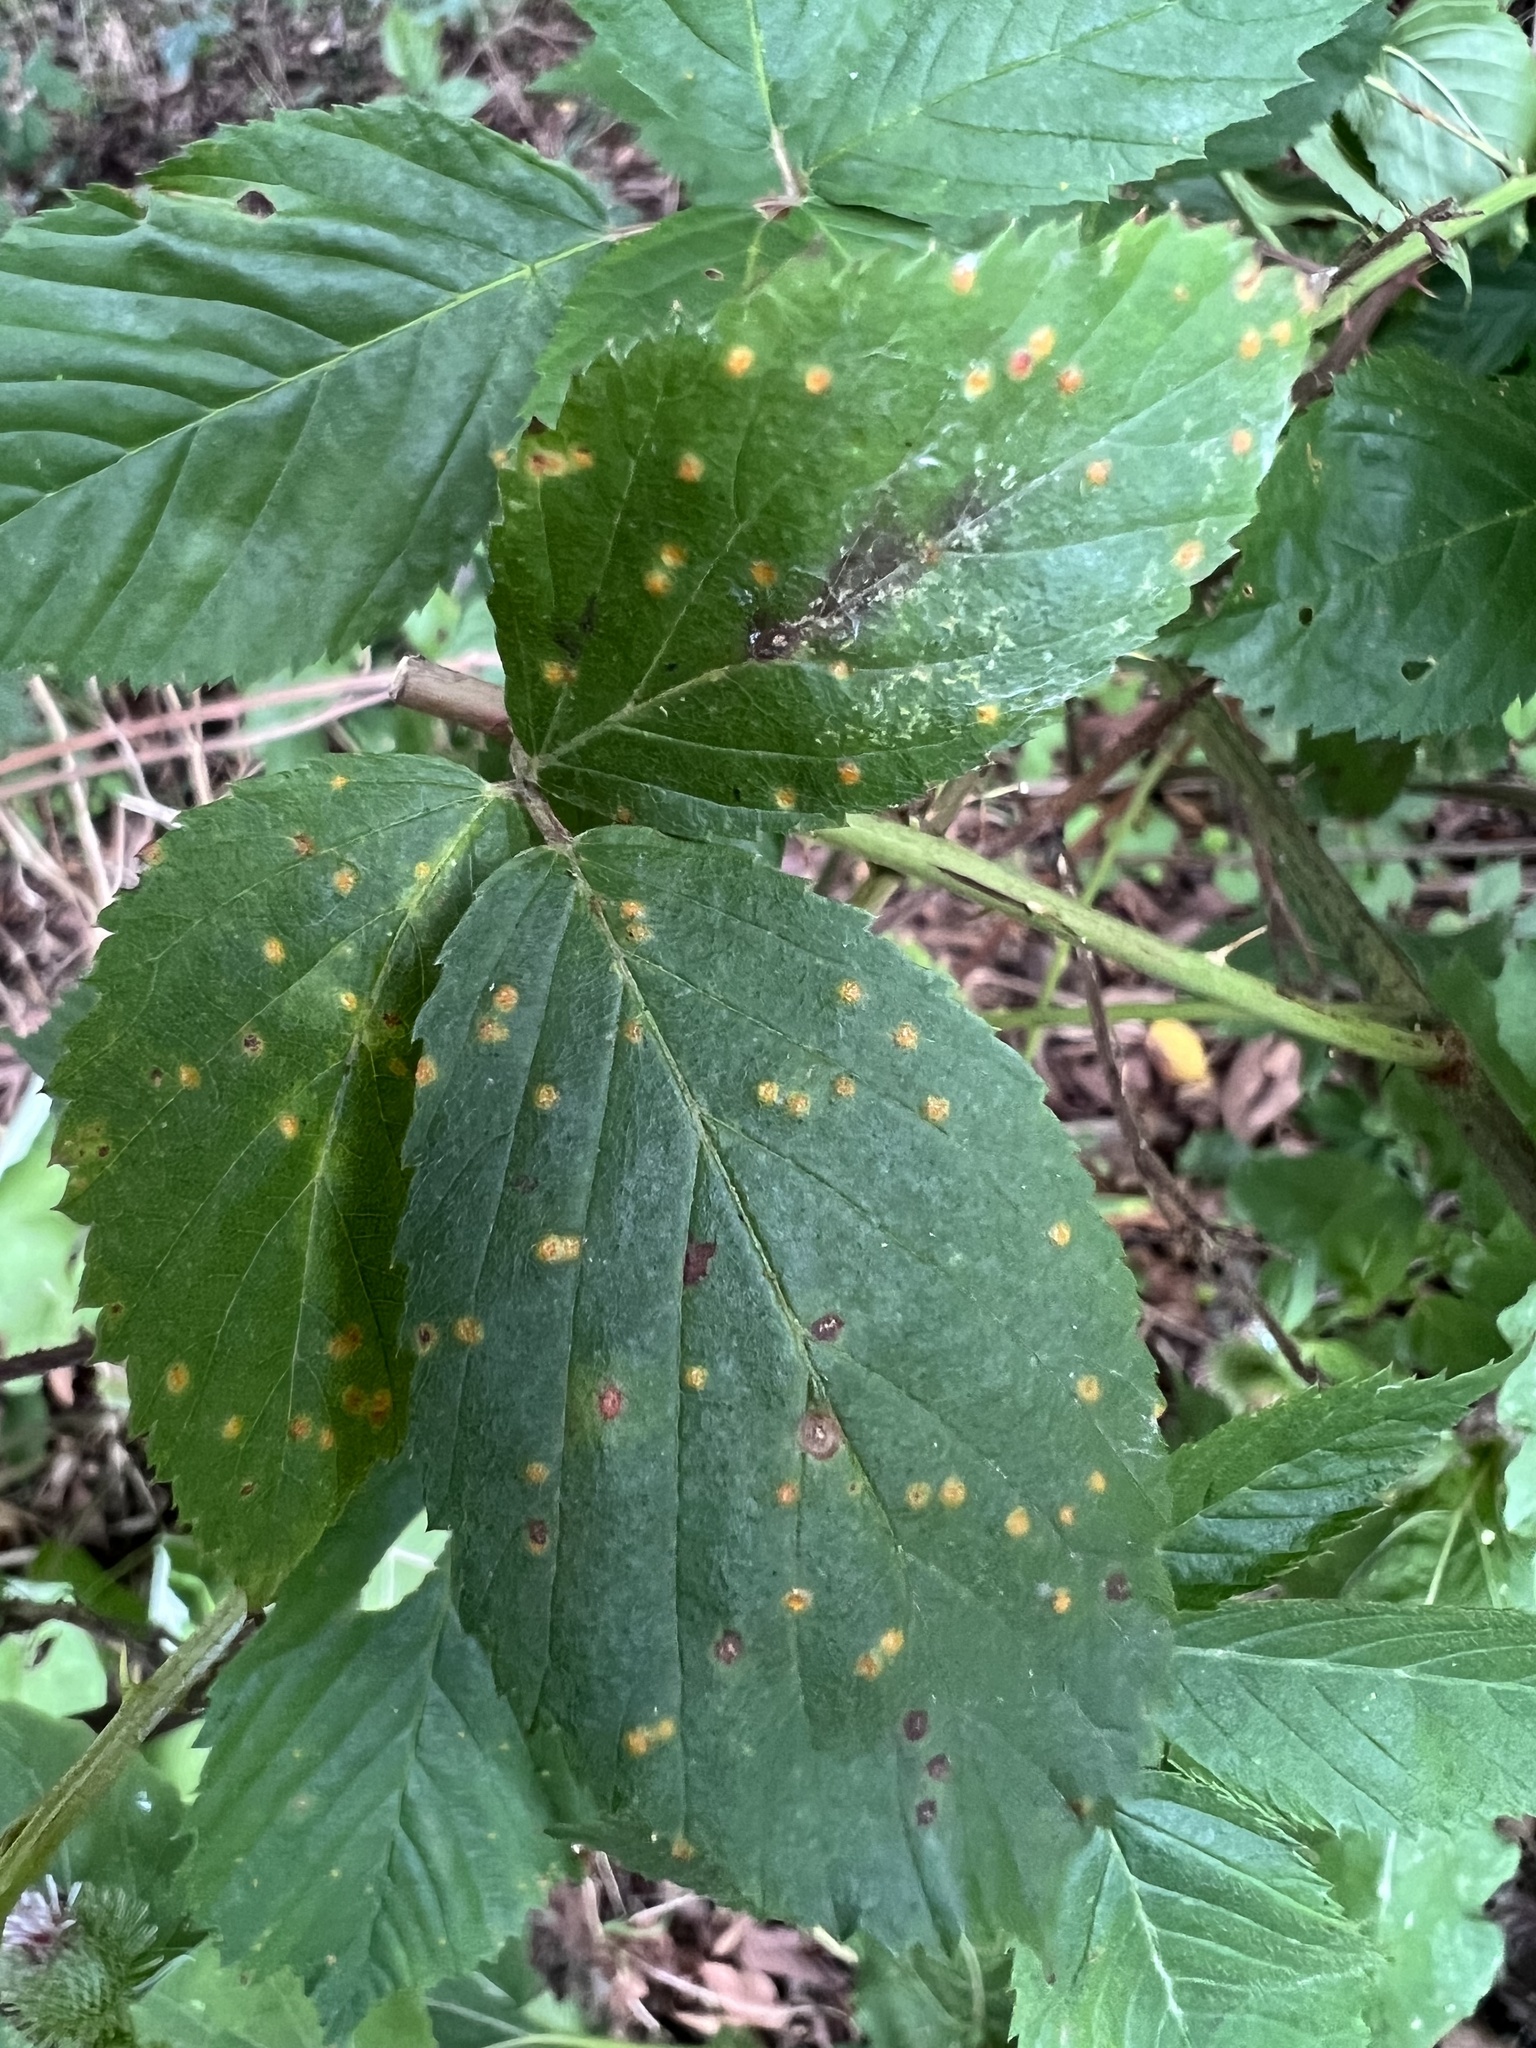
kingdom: Fungi
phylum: Basidiomycota
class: Pucciniomycetes
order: Pucciniales
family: Phragmidiaceae
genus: Kuehneola
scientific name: Kuehneola uredinis
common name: Bramble stem rust
